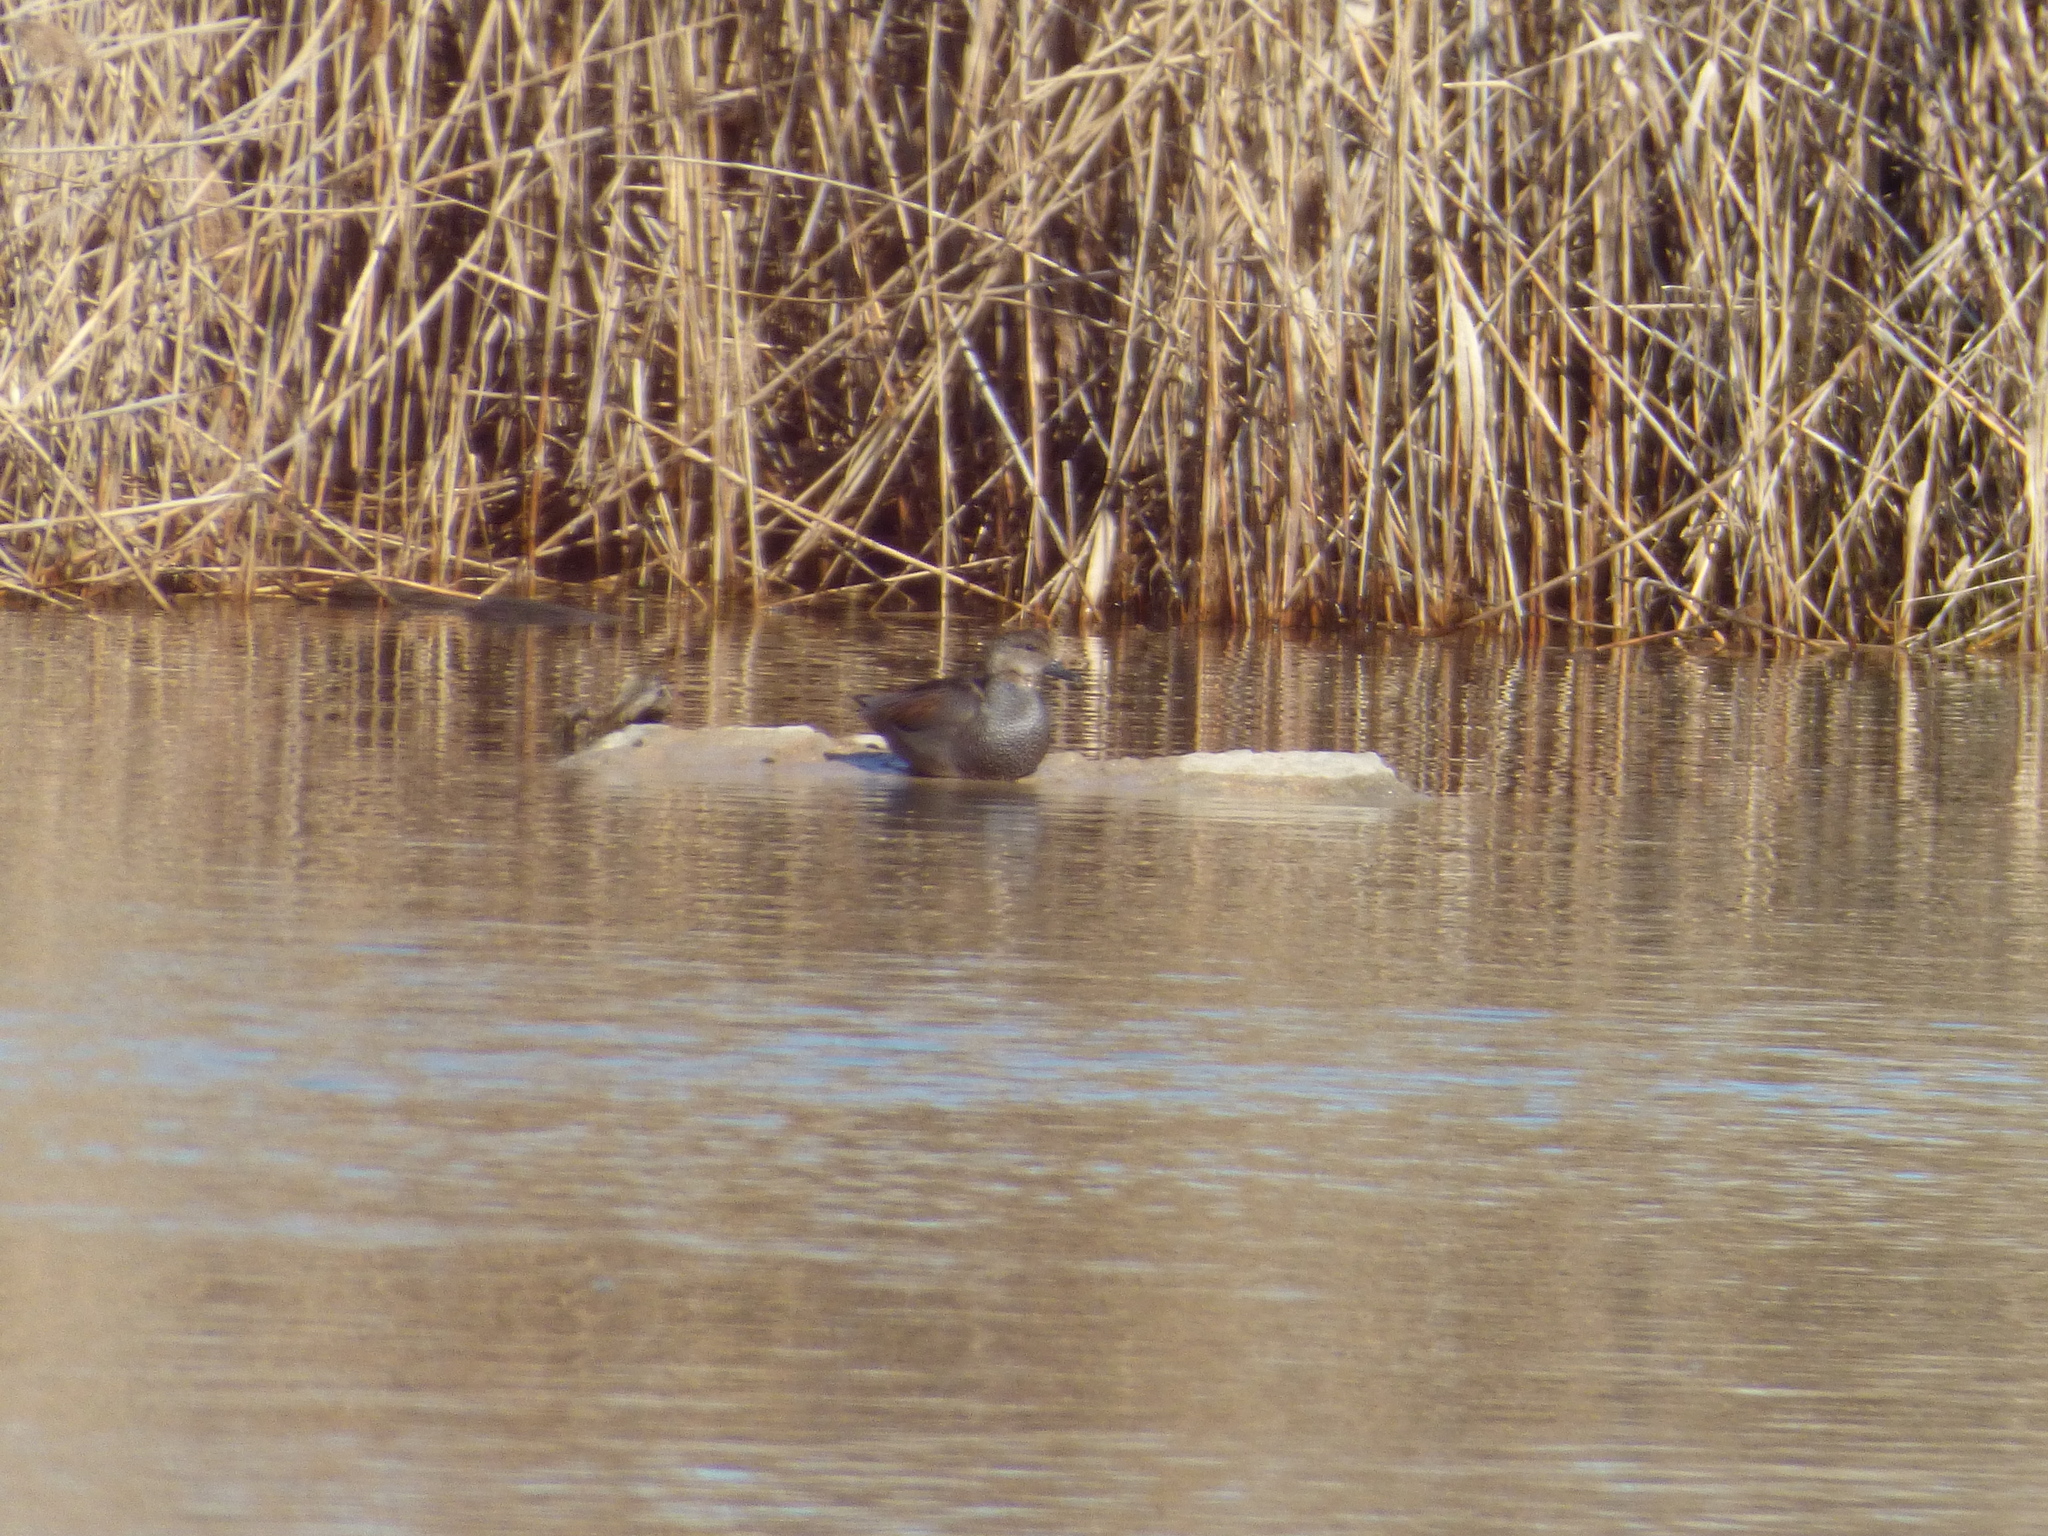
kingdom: Animalia
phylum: Chordata
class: Aves
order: Anseriformes
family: Anatidae
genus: Mareca
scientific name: Mareca strepera
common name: Gadwall
